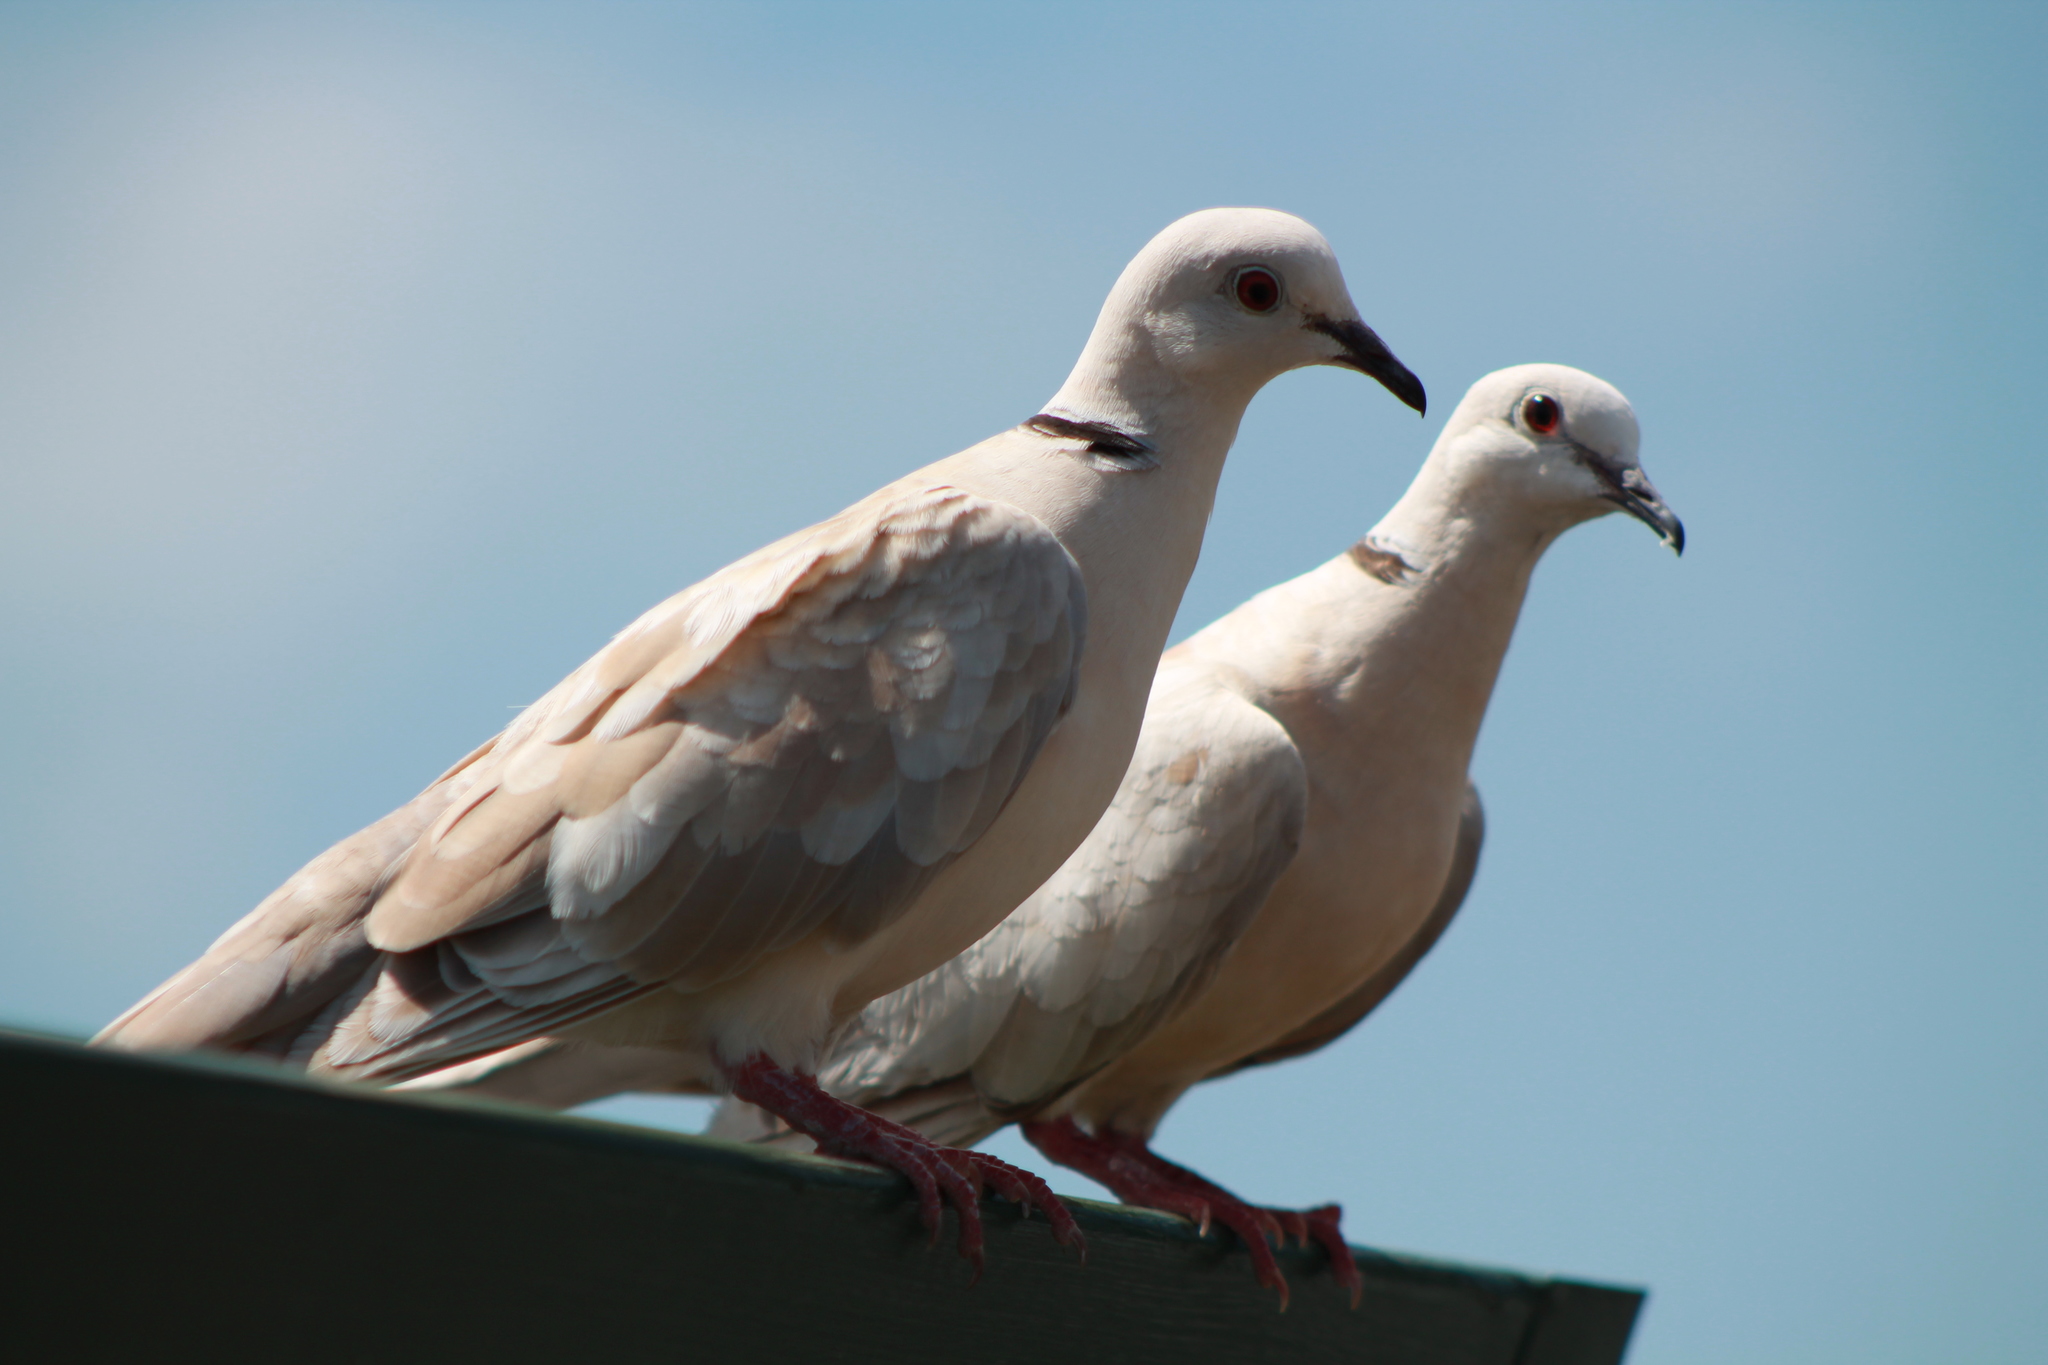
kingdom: Animalia
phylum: Chordata
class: Aves
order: Columbiformes
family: Columbidae
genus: Streptopelia
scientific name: Streptopelia roseogrisea
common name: African collared dove
